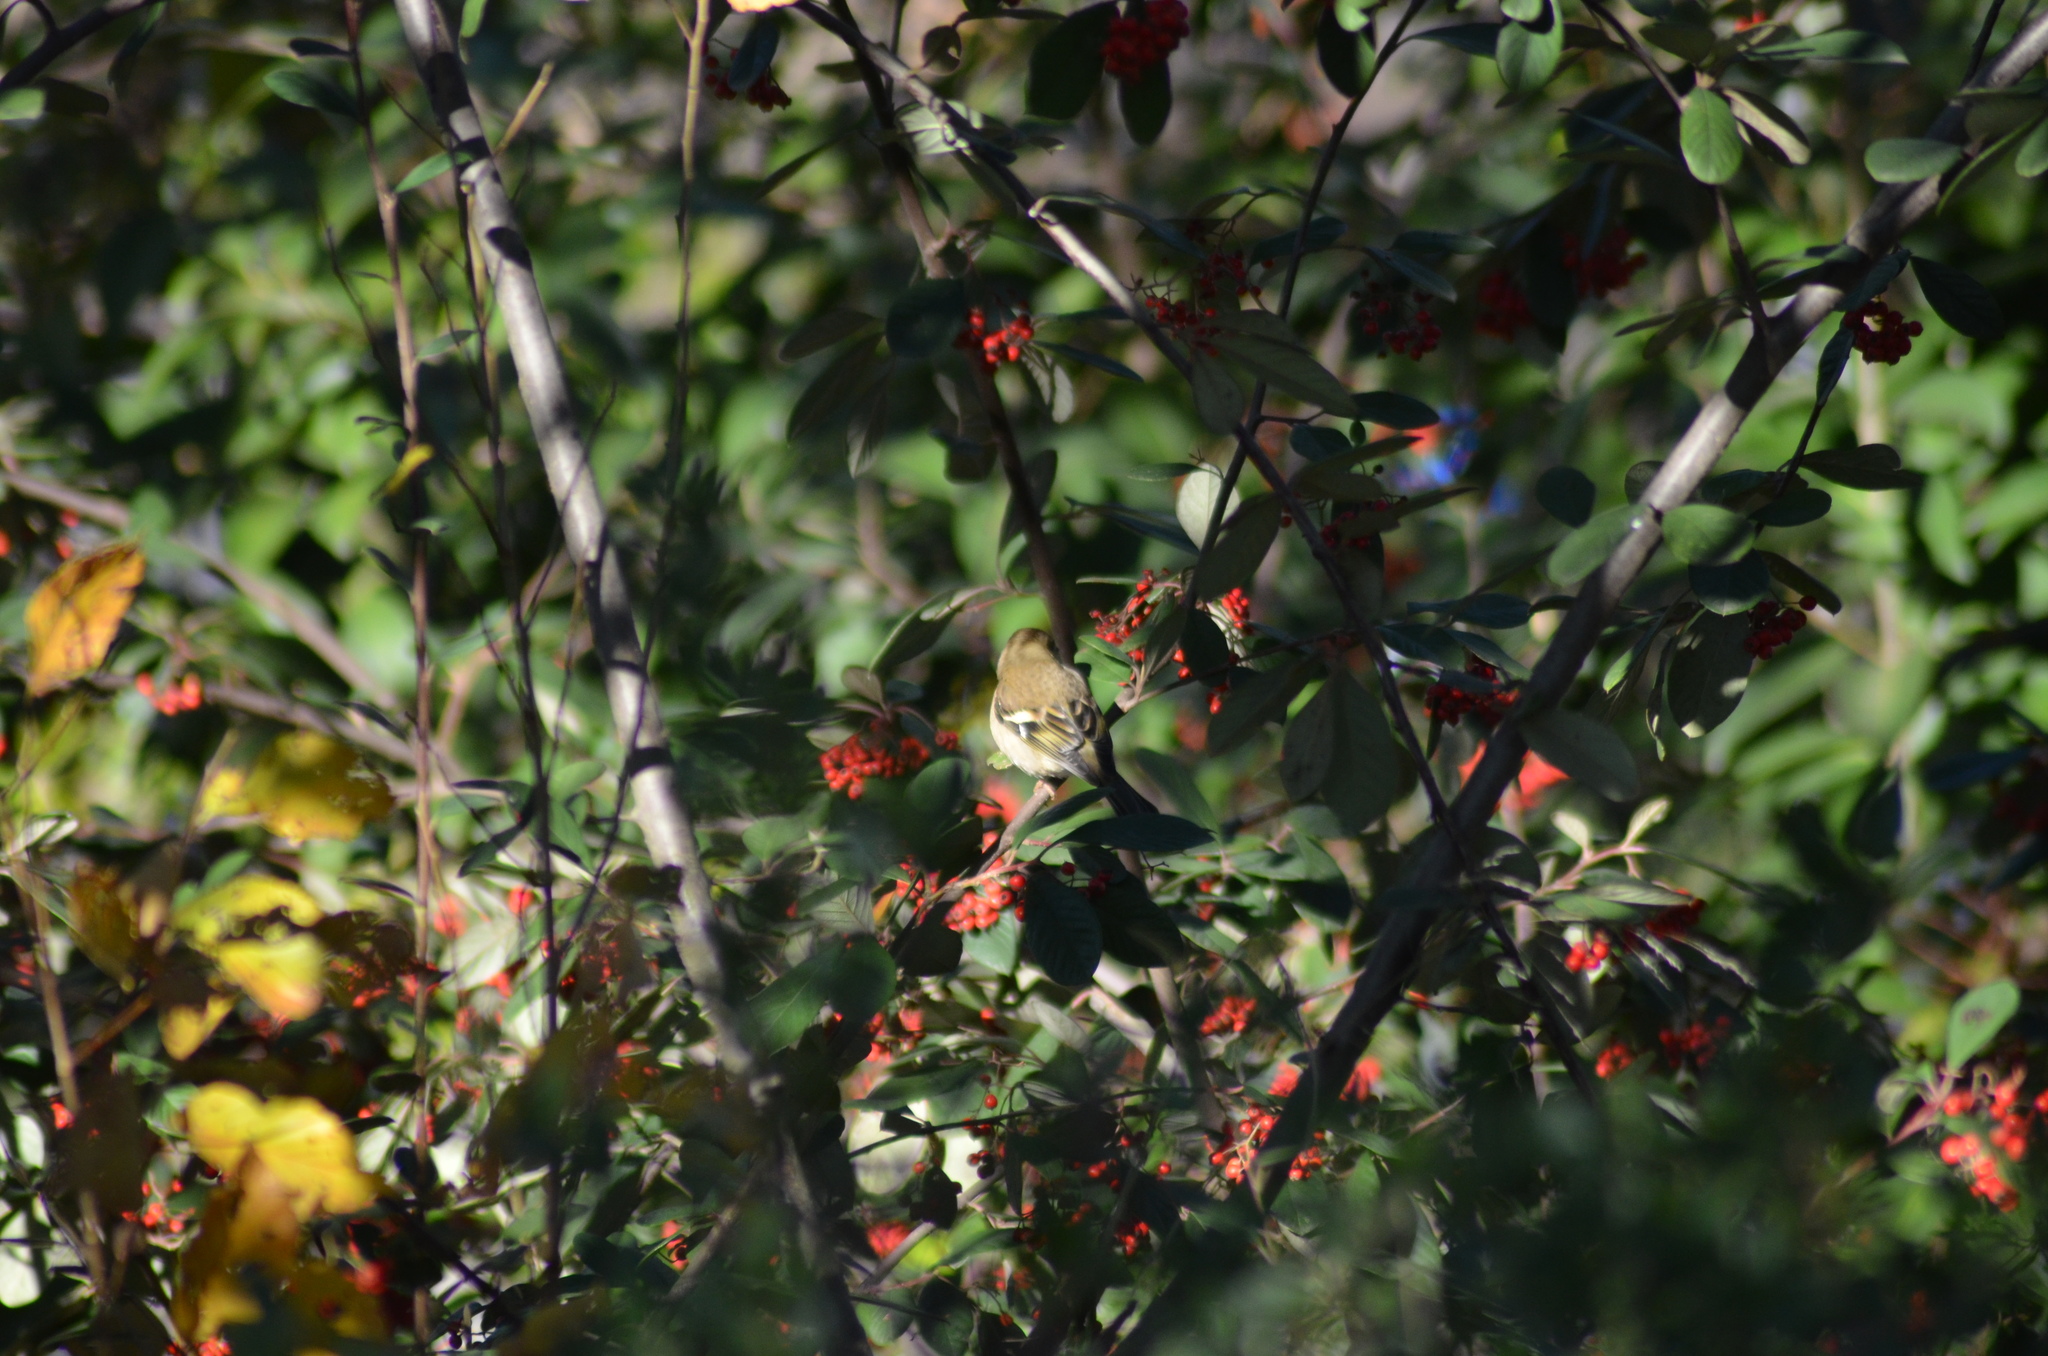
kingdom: Animalia
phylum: Chordata
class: Aves
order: Passeriformes
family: Fringillidae
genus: Fringilla
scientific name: Fringilla coelebs
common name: Common chaffinch
